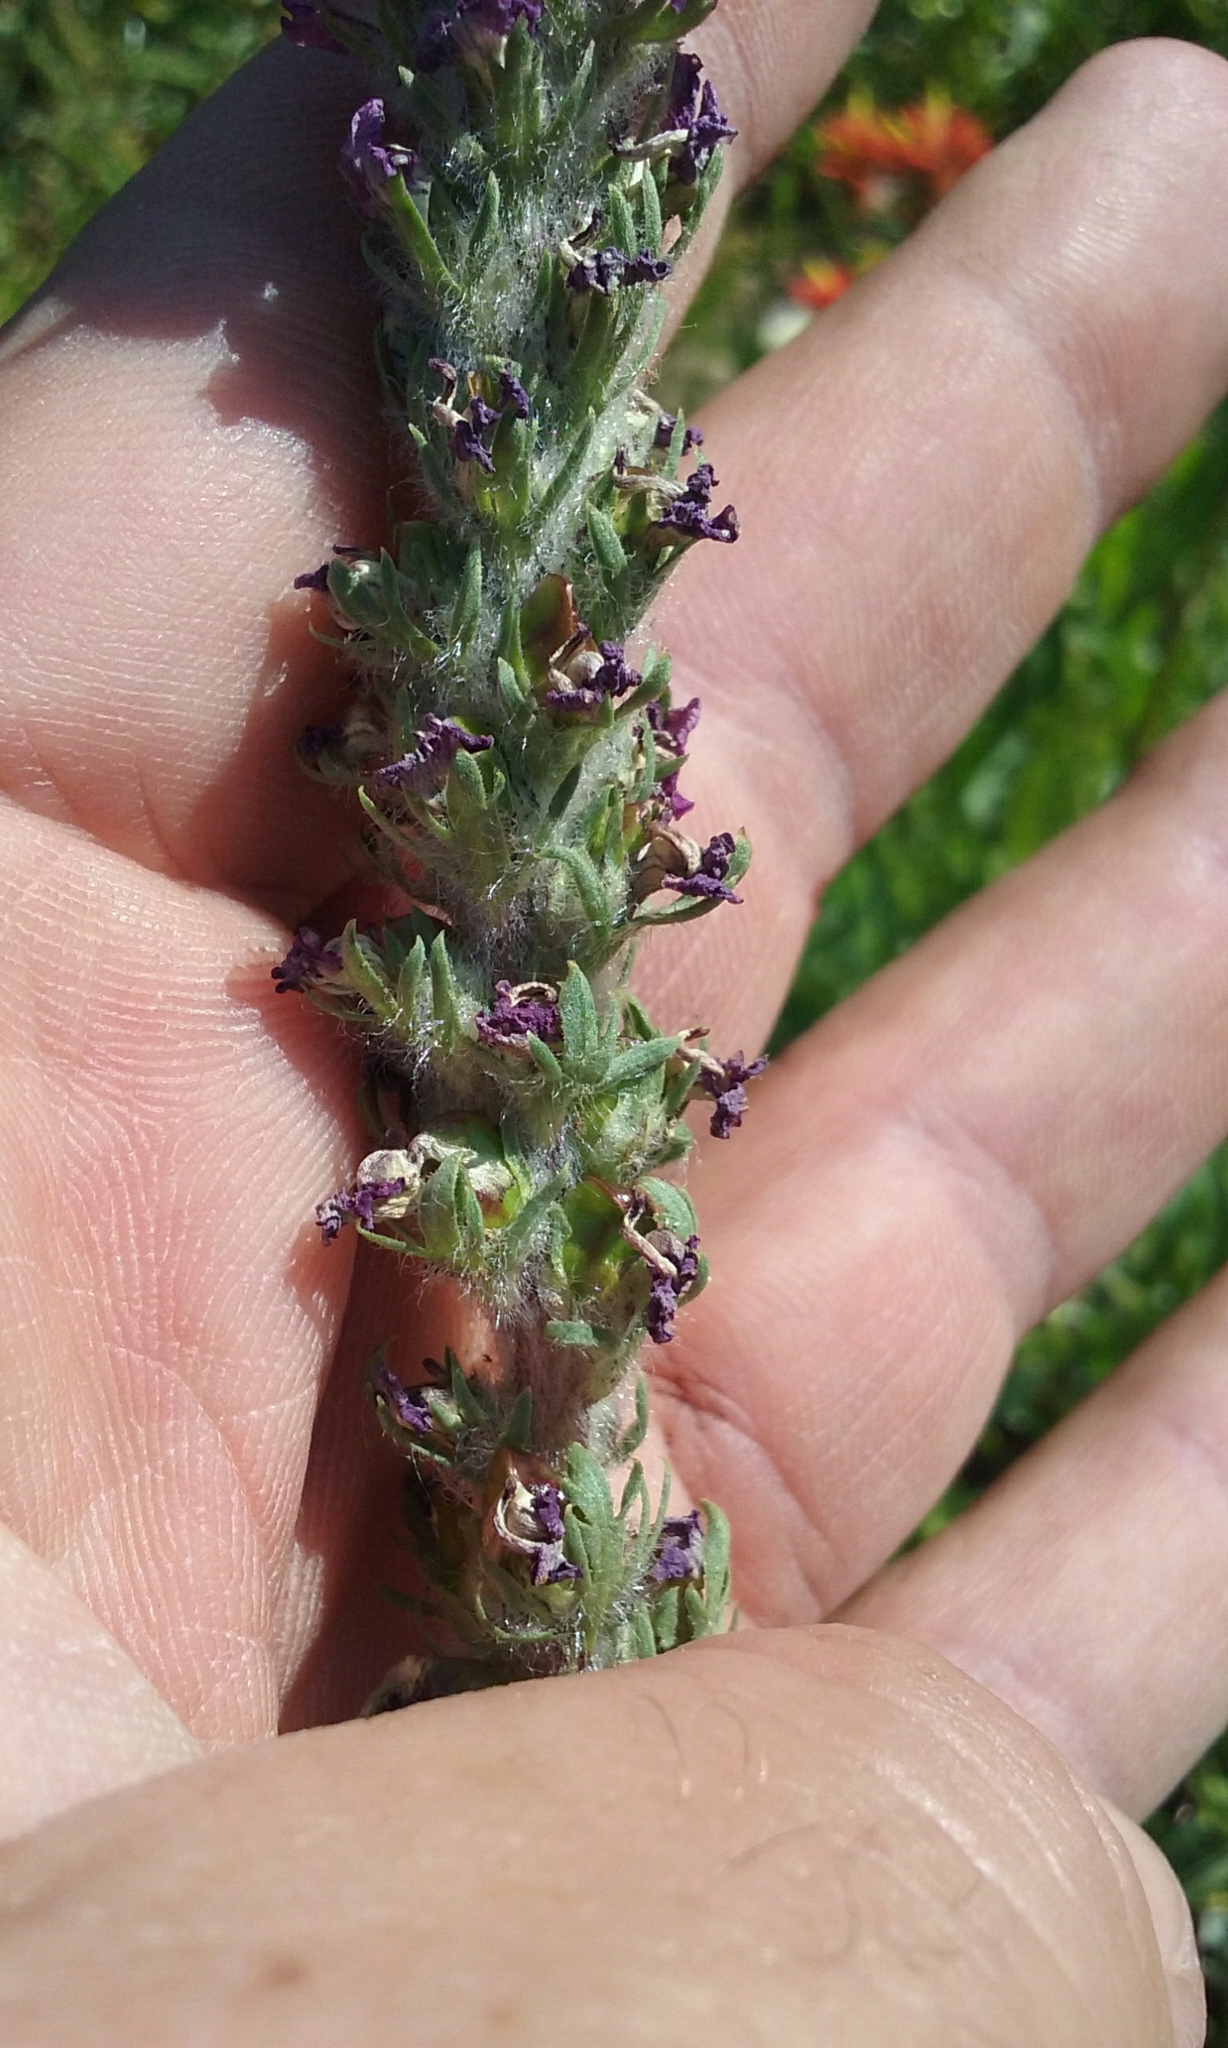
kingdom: Plantae
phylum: Tracheophyta
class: Magnoliopsida
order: Lamiales
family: Orobanchaceae
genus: Pedicularis
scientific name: Pedicularis attollens
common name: Slender pedicularis
